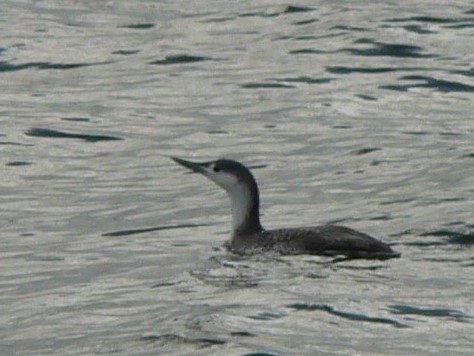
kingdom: Animalia
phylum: Chordata
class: Aves
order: Gaviiformes
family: Gaviidae
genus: Gavia
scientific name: Gavia stellata
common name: Red-throated loon
